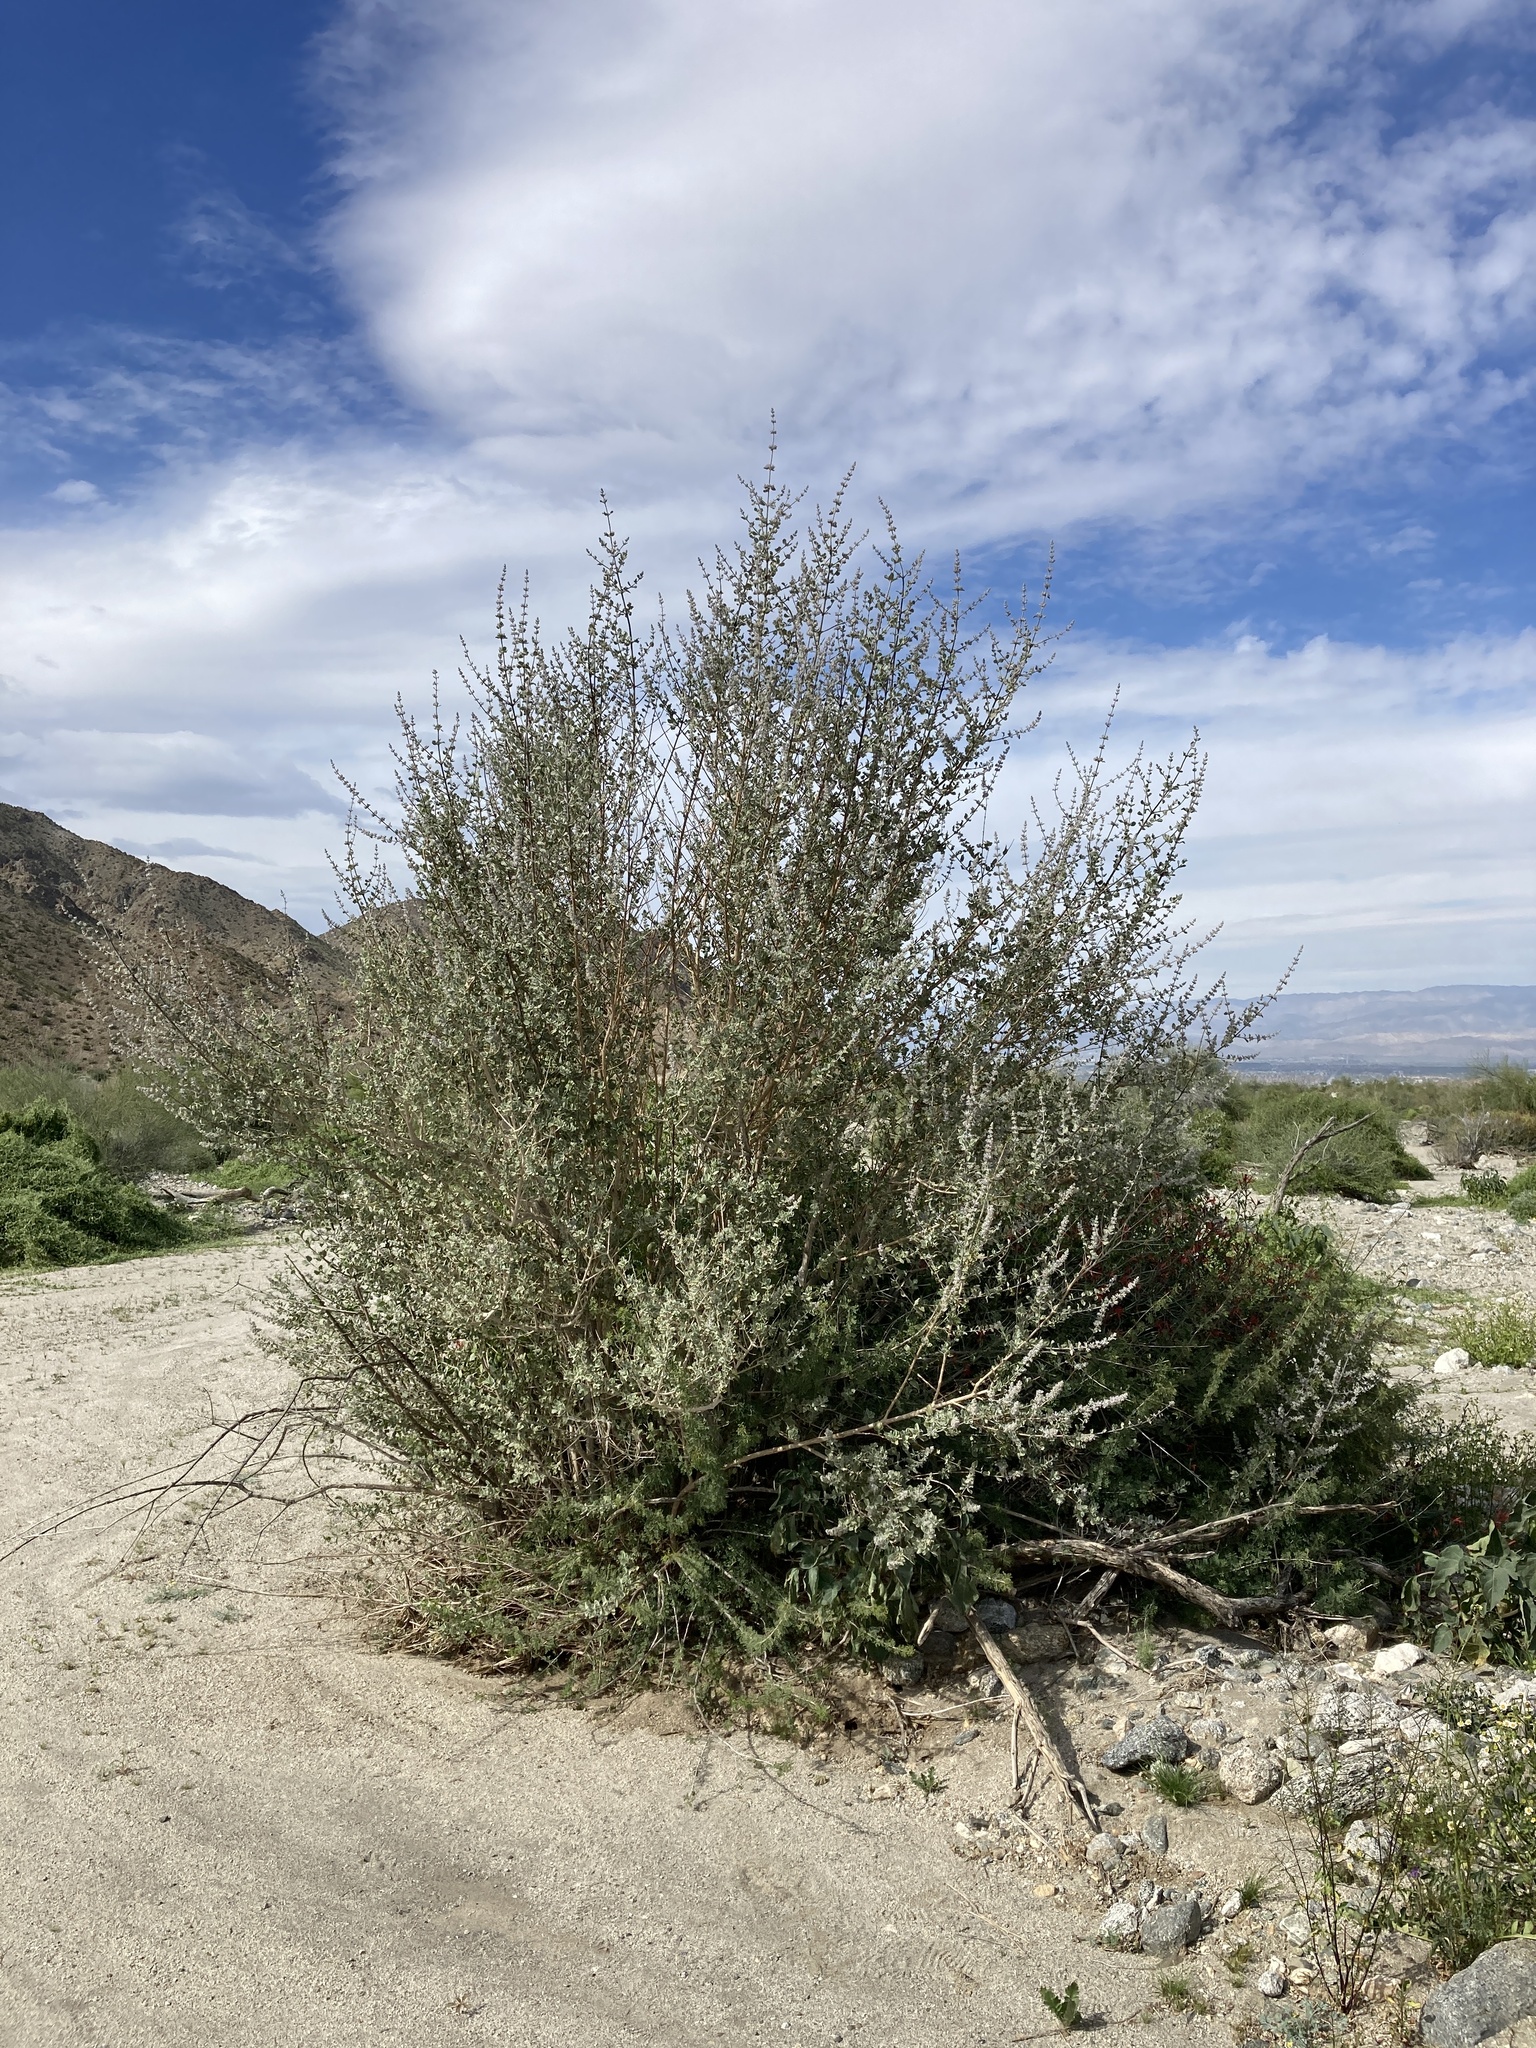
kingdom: Plantae
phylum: Tracheophyta
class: Magnoliopsida
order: Lamiales
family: Lamiaceae
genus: Condea
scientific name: Condea emoryi
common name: Chia
